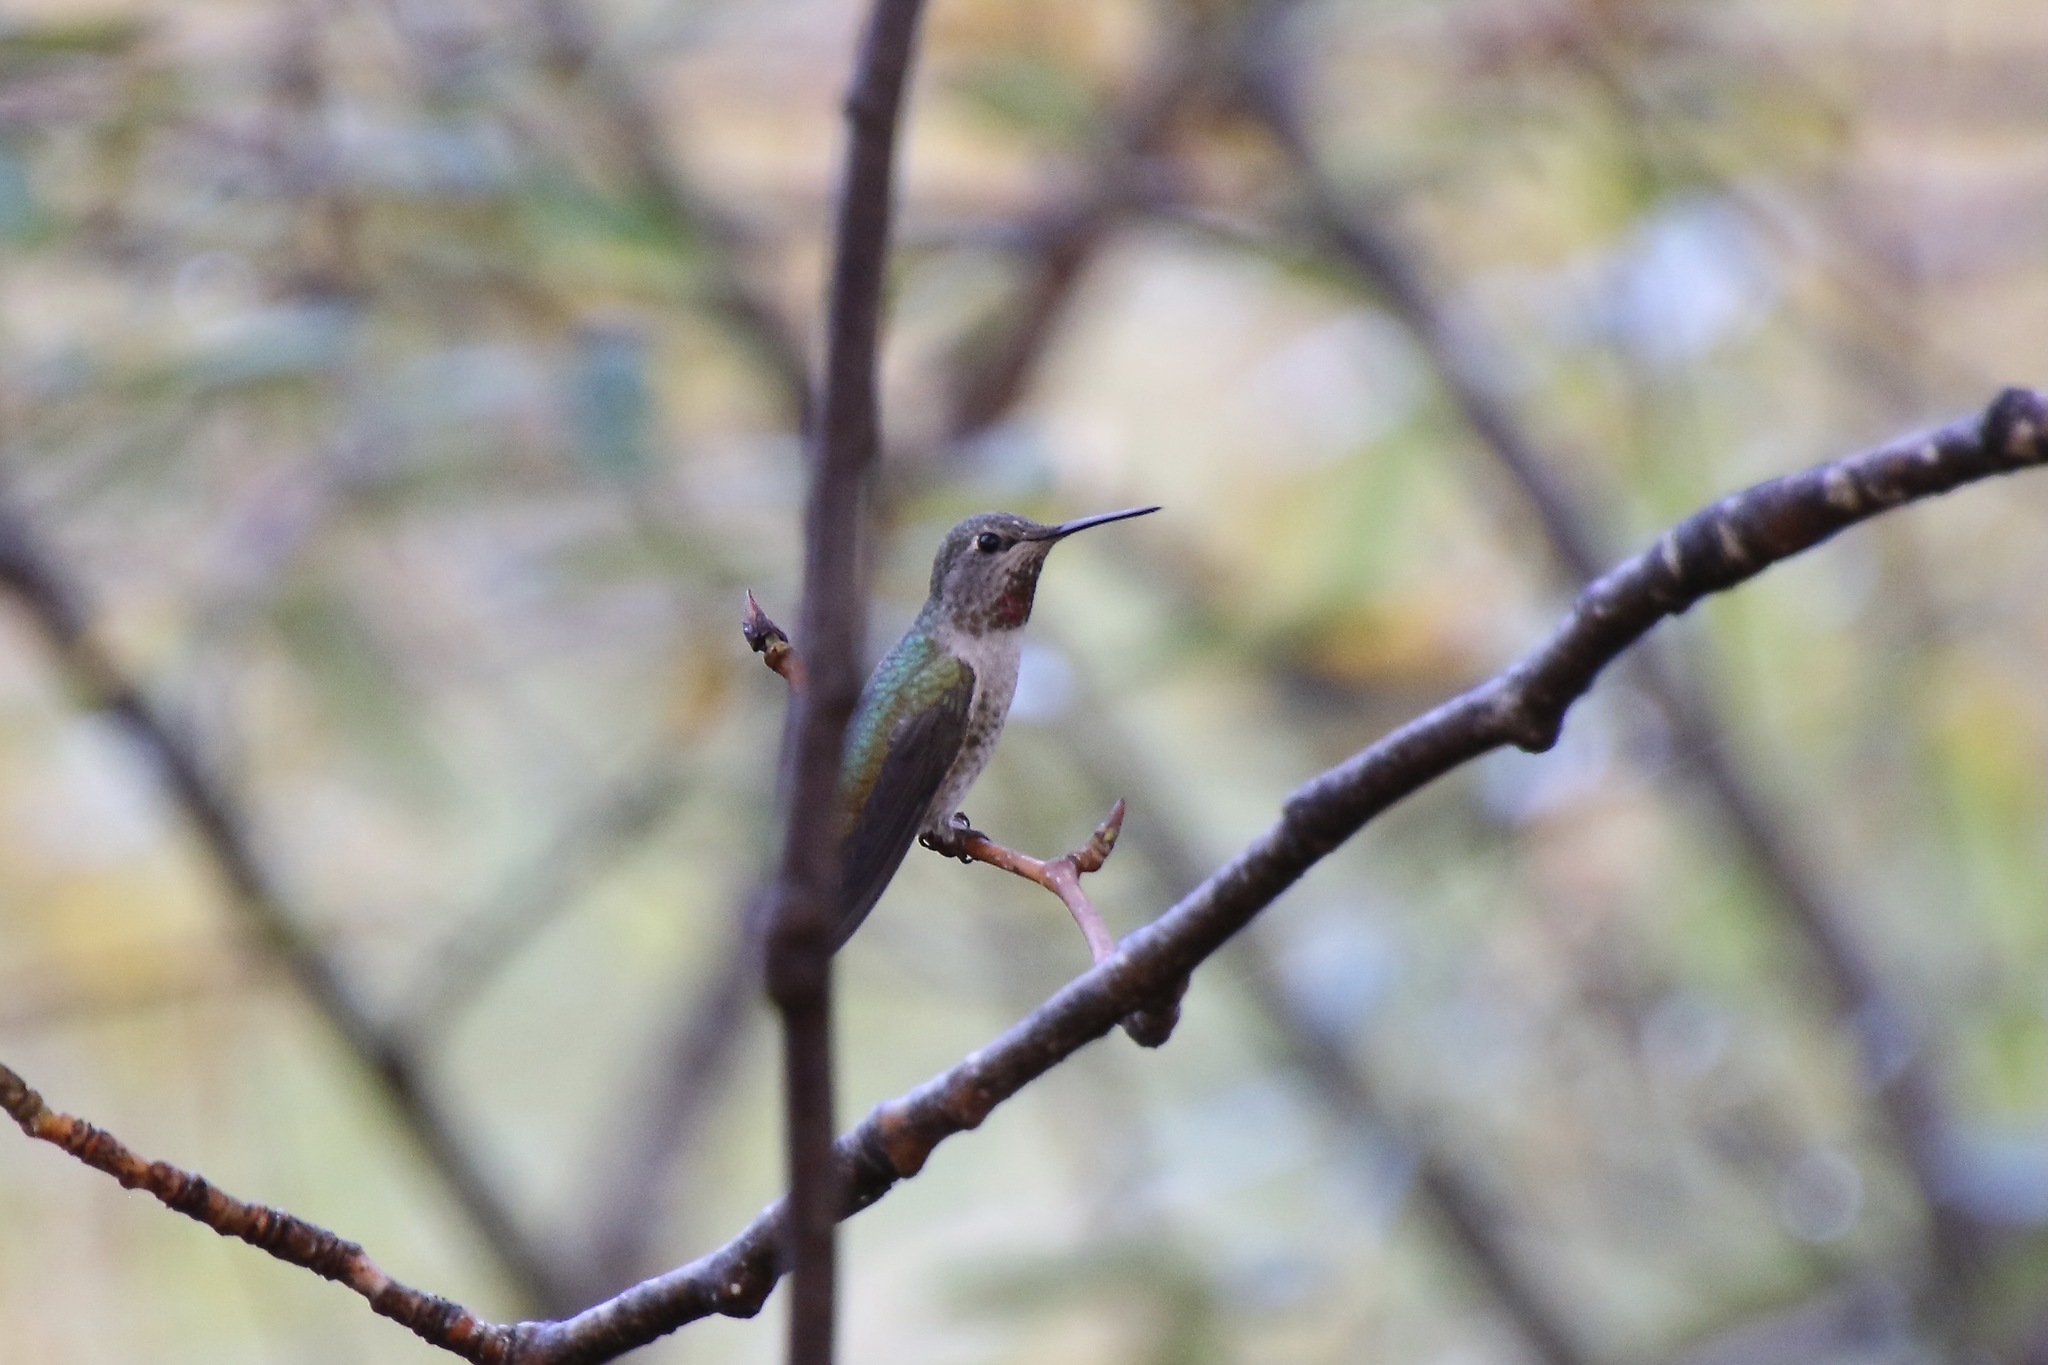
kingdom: Animalia
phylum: Chordata
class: Aves
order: Apodiformes
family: Trochilidae
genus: Calypte
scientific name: Calypte anna
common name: Anna's hummingbird
